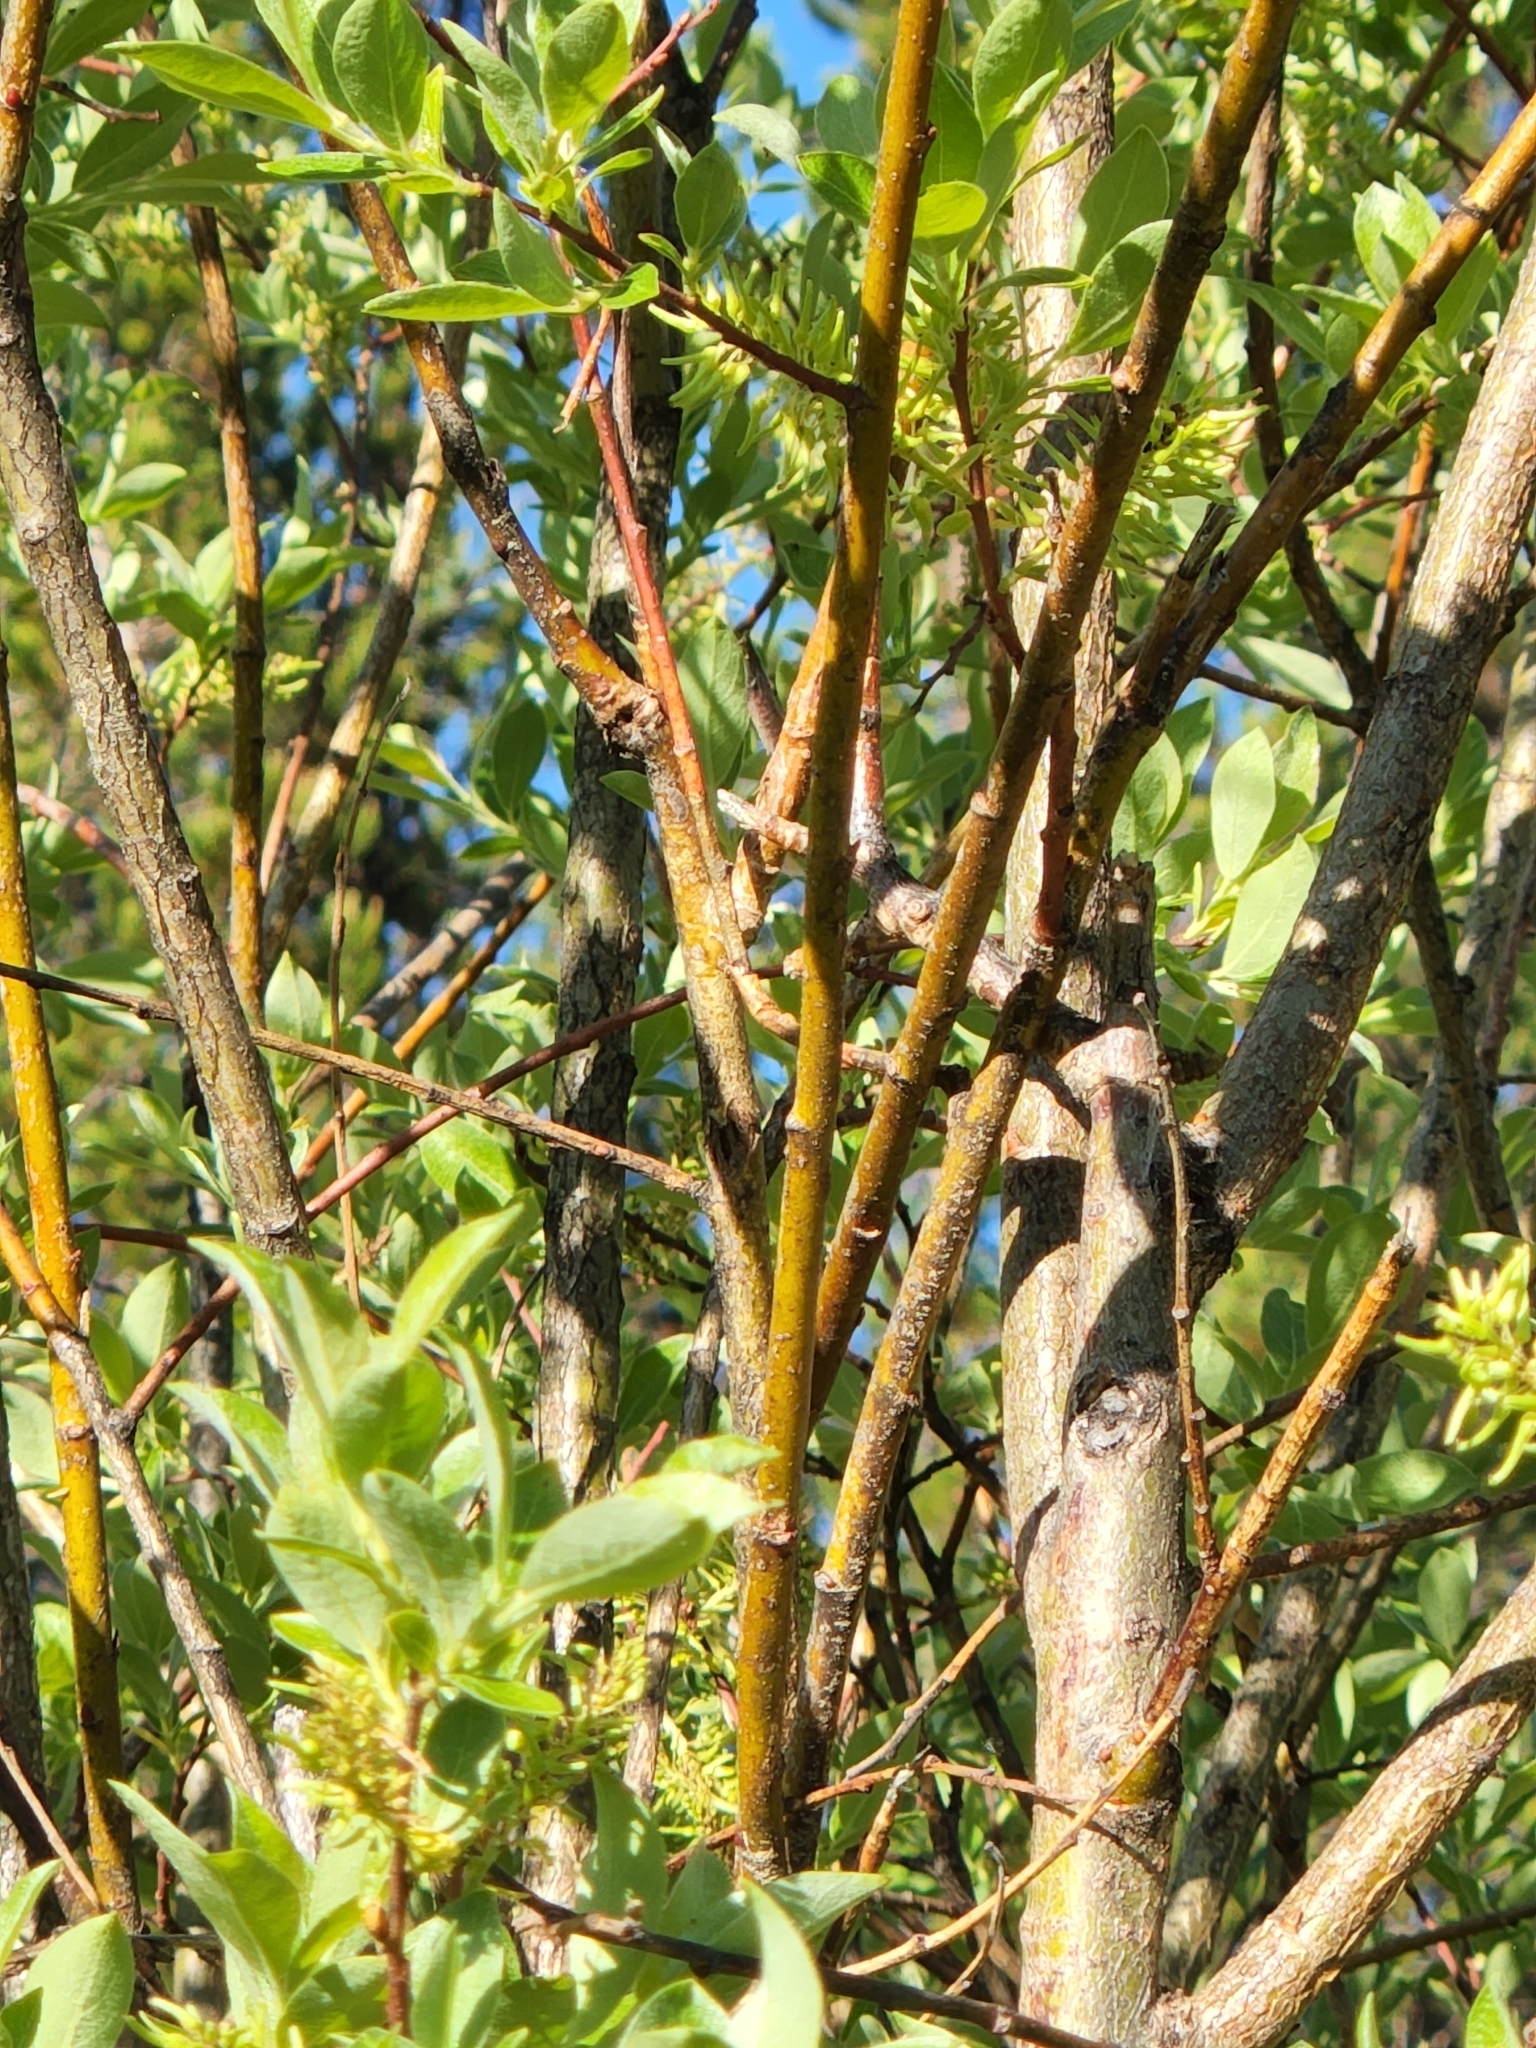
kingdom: Plantae
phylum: Tracheophyta
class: Magnoliopsida
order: Malpighiales
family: Salicaceae
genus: Salix
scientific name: Salix bebbiana
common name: Bebb's willow
